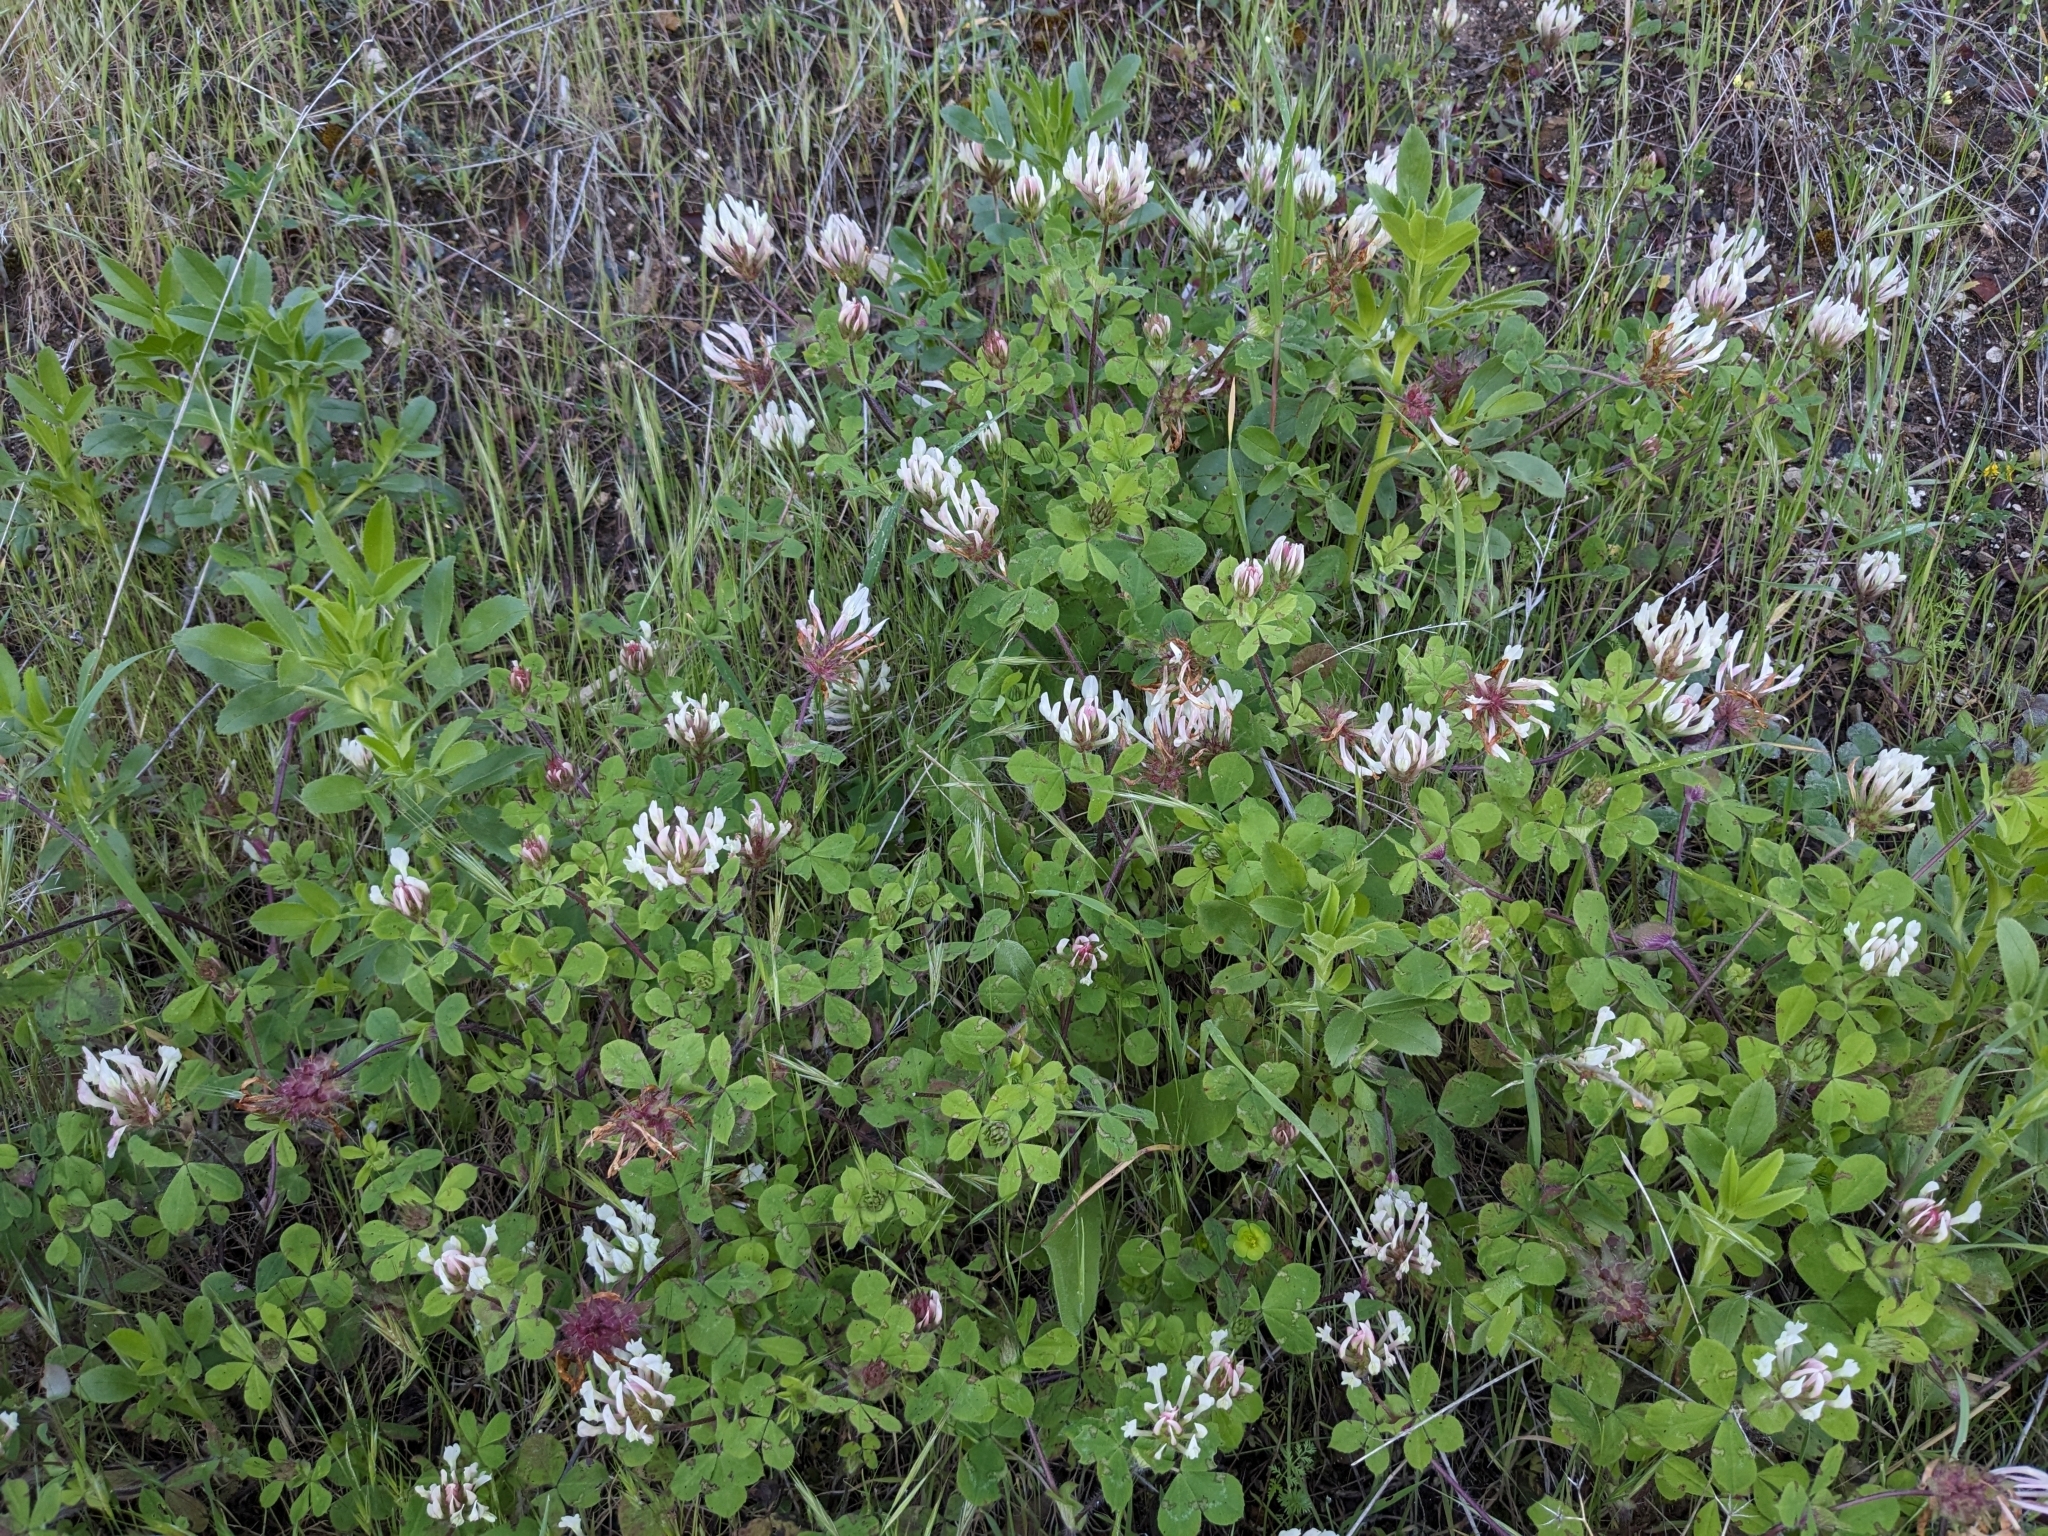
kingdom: Plantae
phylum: Tracheophyta
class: Magnoliopsida
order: Fabales
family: Fabaceae
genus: Trifolium
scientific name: Trifolium clypeatum
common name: Shield clover
